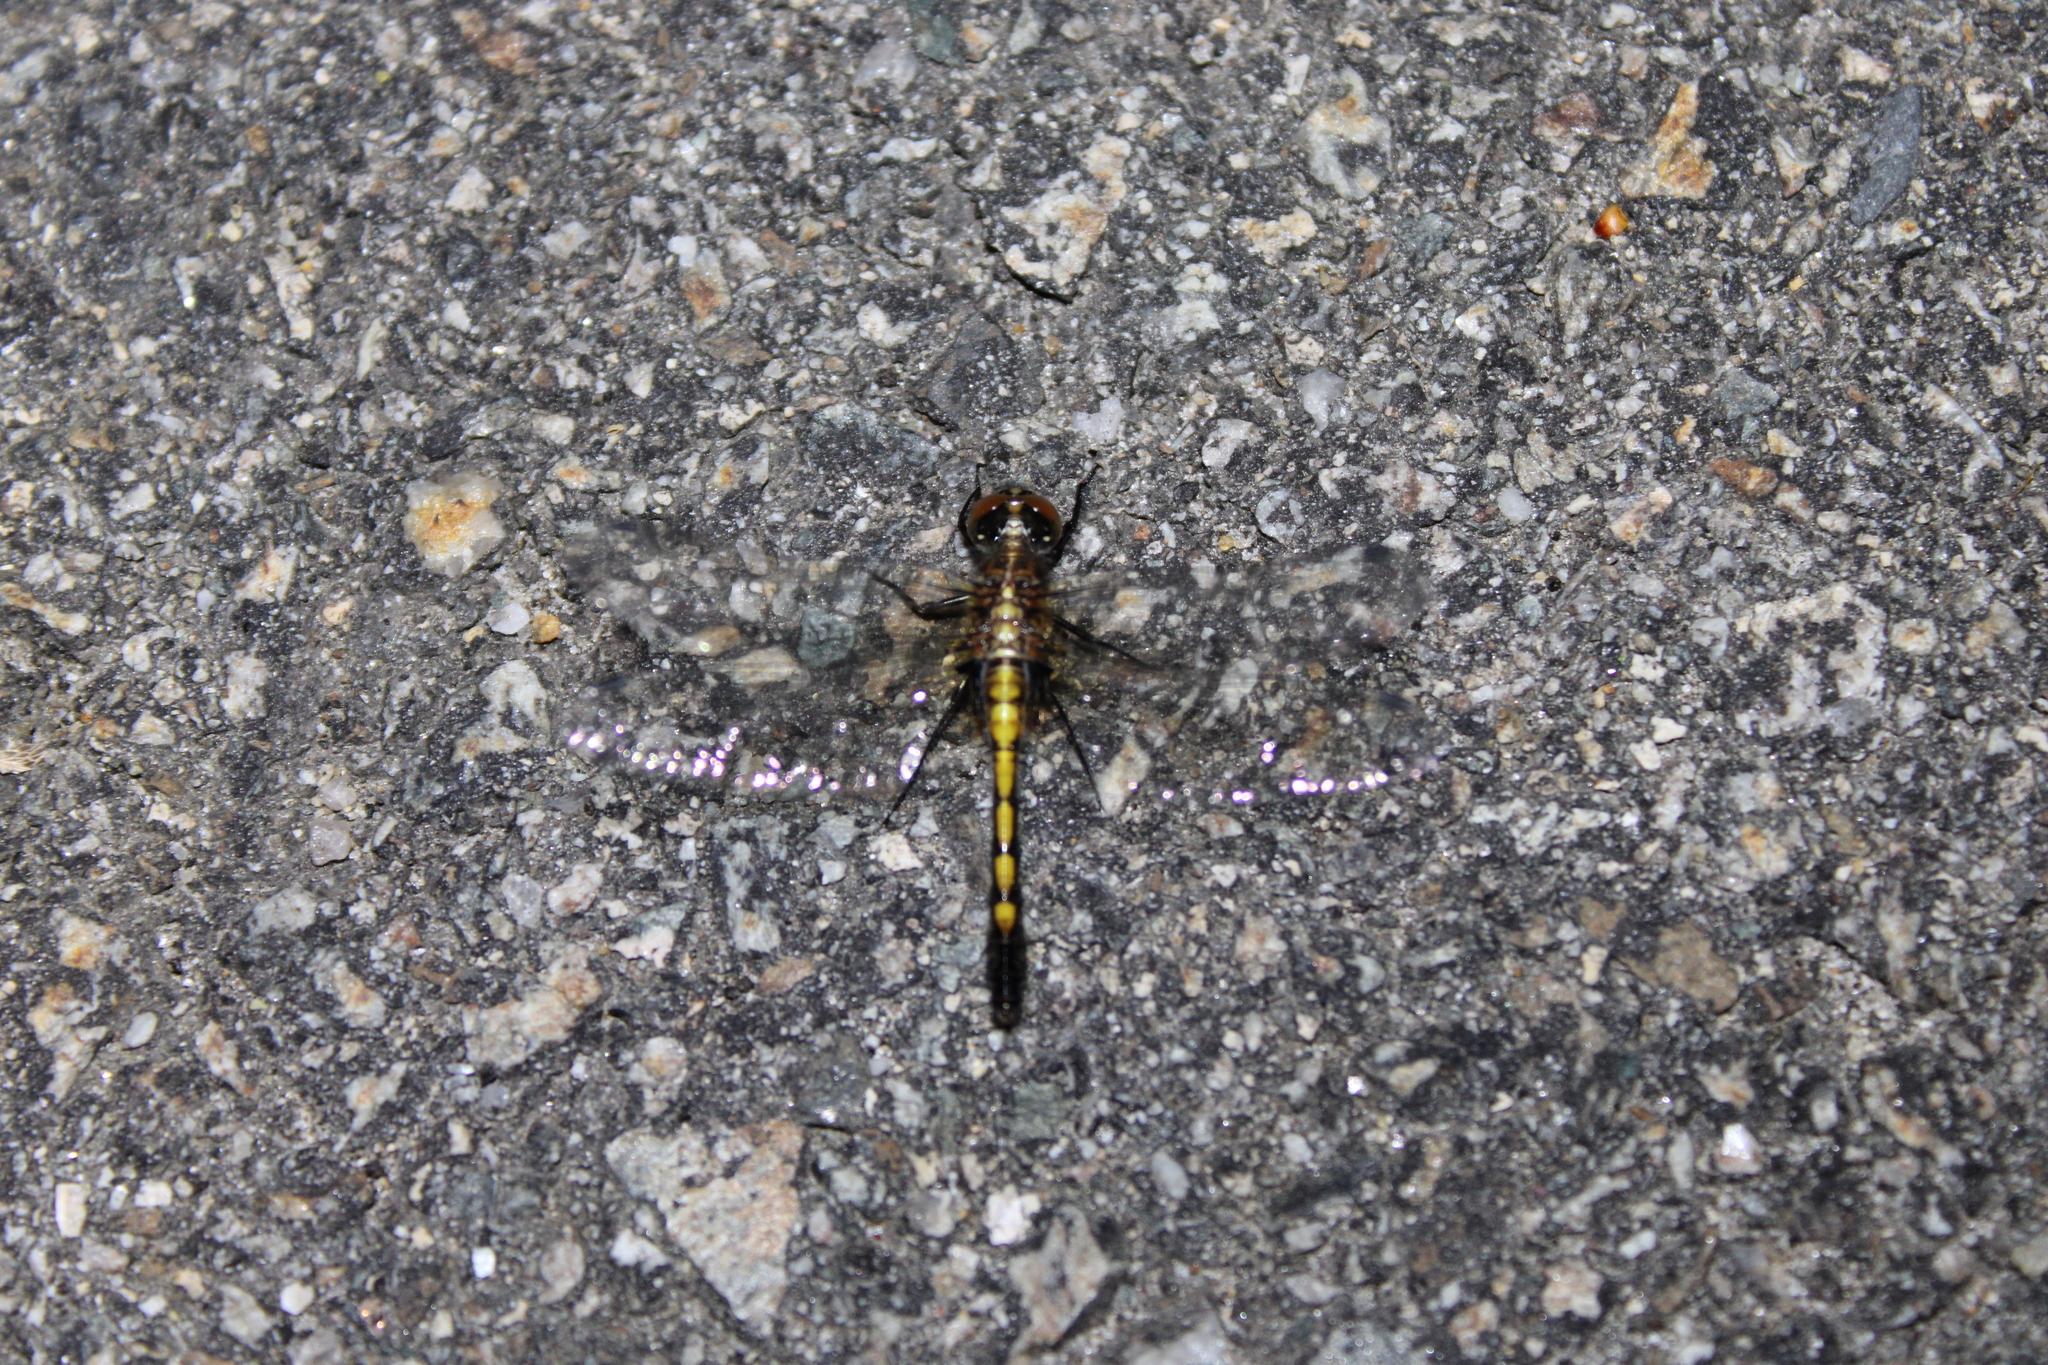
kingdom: Animalia
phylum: Arthropoda
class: Insecta
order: Odonata
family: Libellulidae
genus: Leucorrhinia
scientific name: Leucorrhinia intacta
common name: Dot-tailed whiteface
